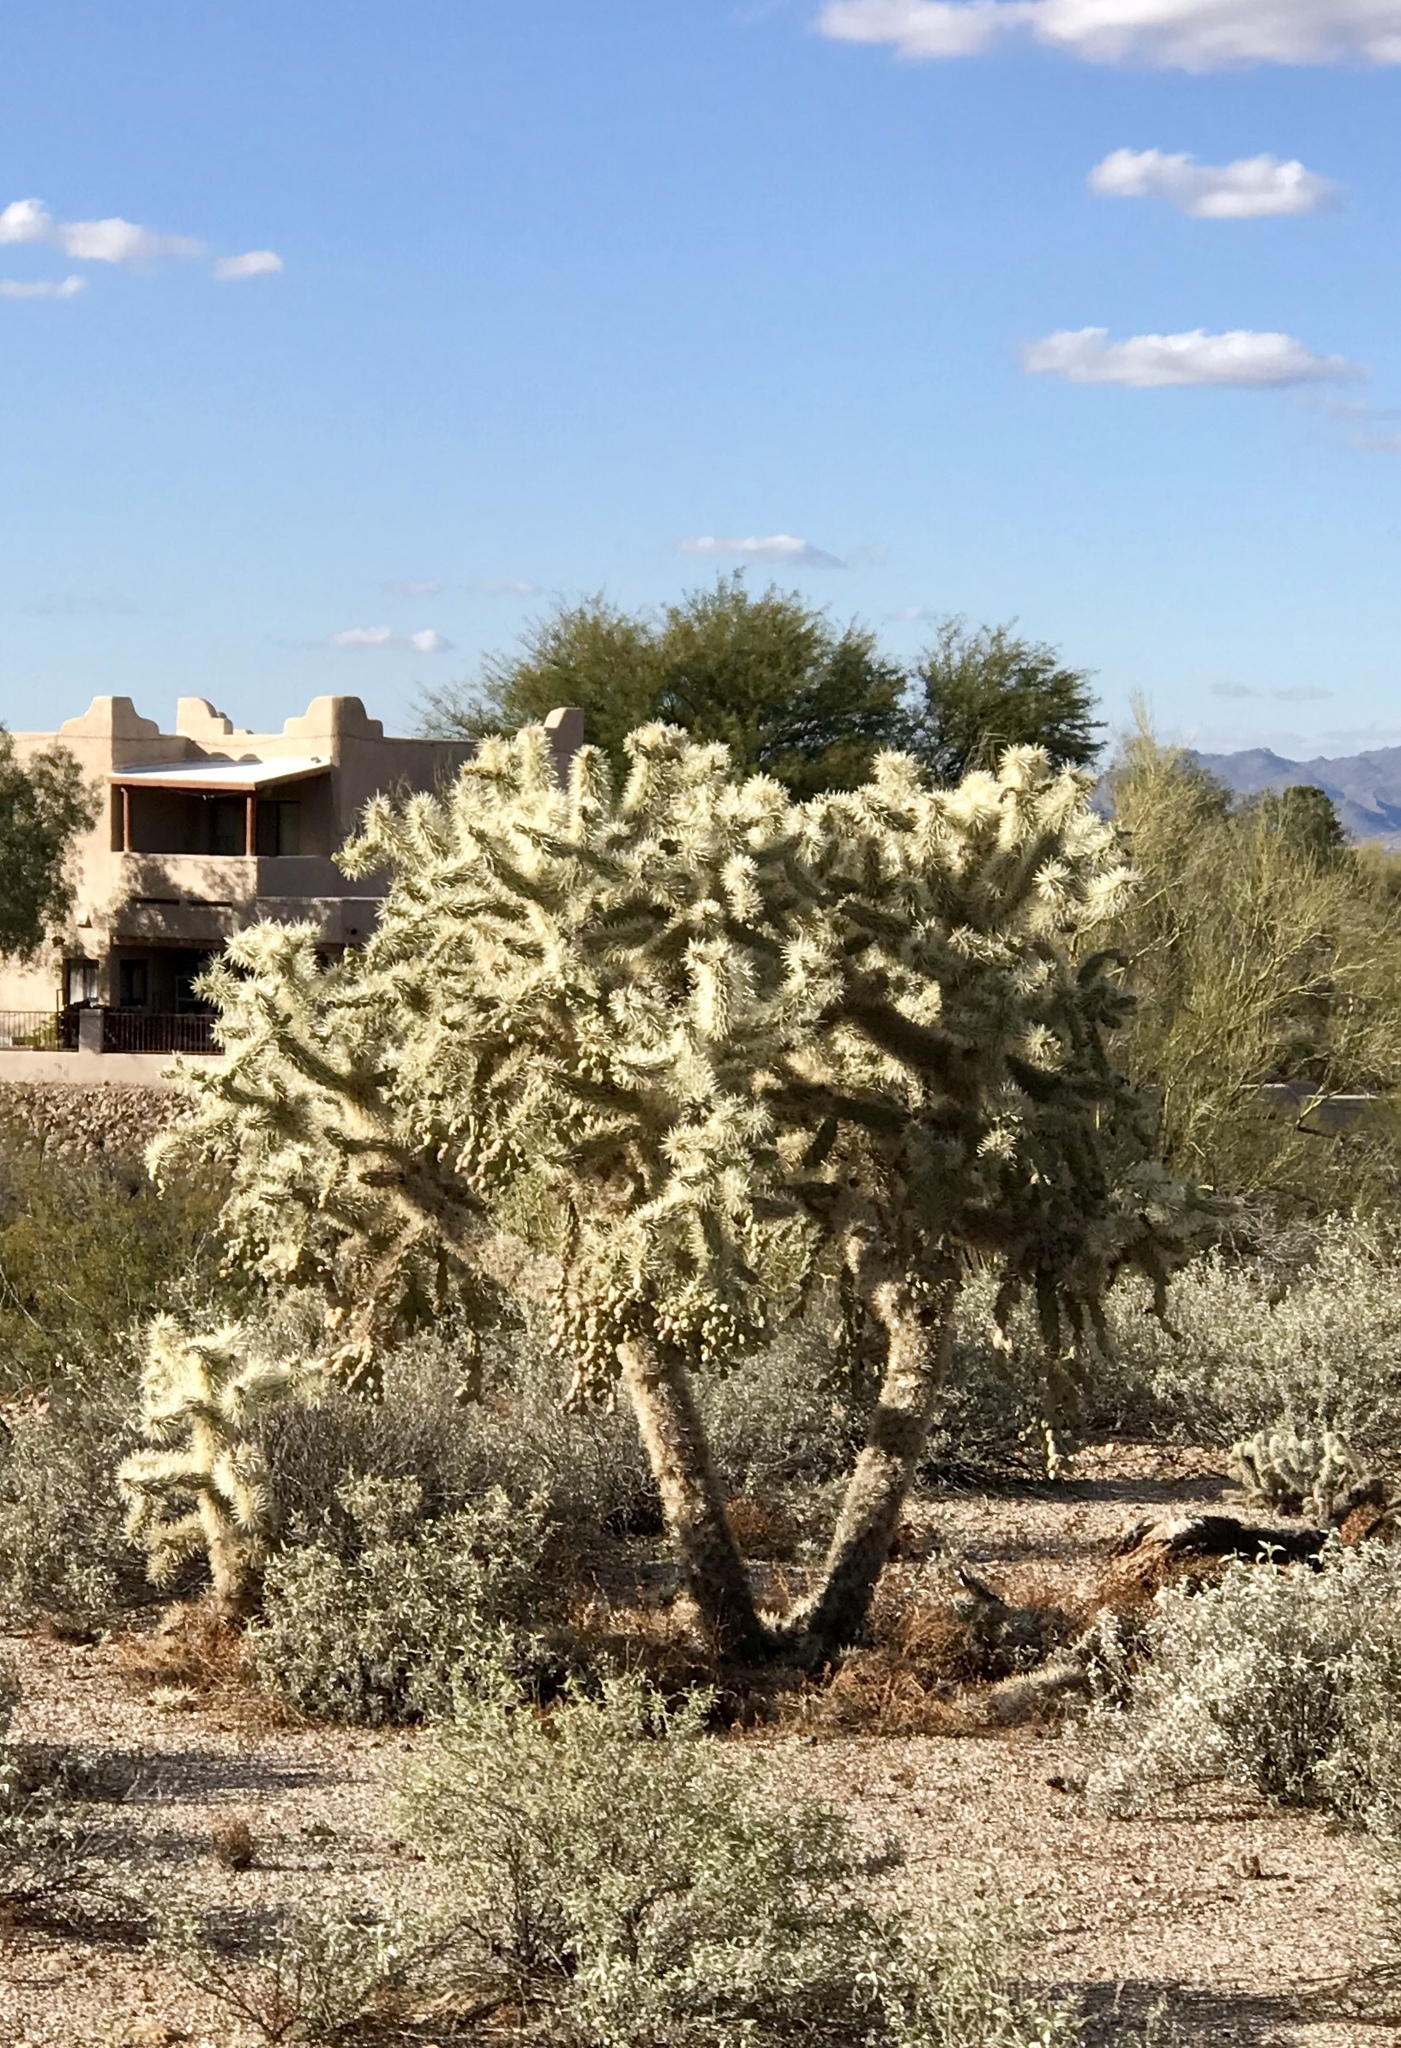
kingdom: Plantae
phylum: Tracheophyta
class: Magnoliopsida
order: Caryophyllales
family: Cactaceae
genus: Cylindropuntia
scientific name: Cylindropuntia fulgida
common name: Jumping cholla
